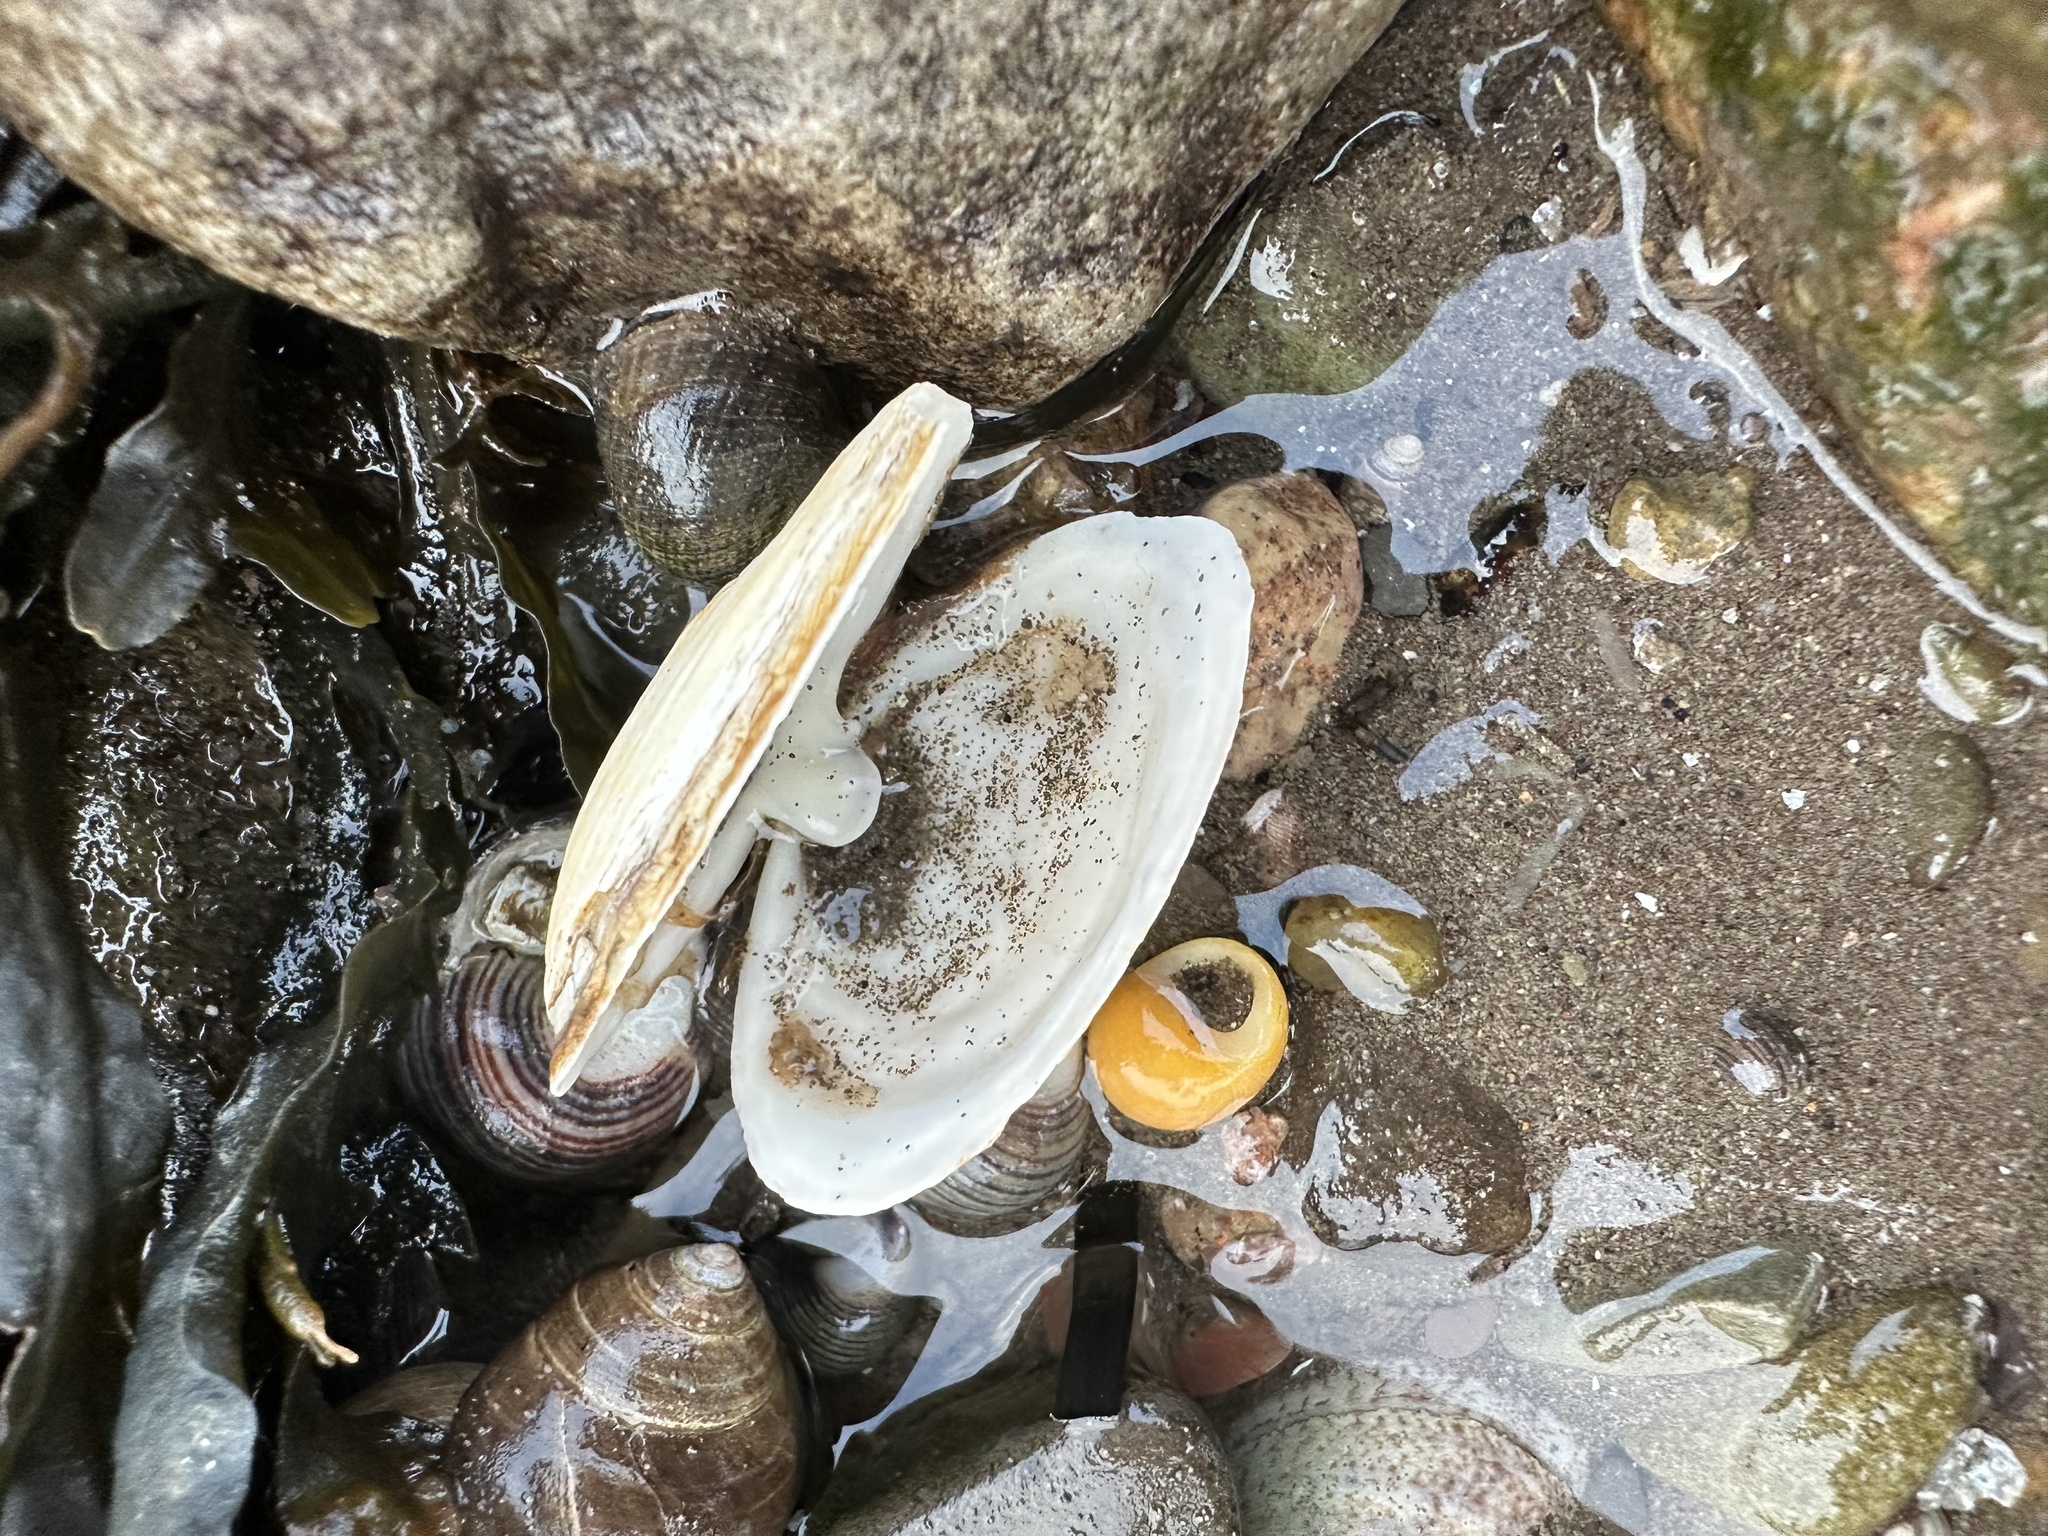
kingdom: Animalia
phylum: Mollusca
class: Bivalvia
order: Myida
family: Myidae
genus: Mya
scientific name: Mya arenaria
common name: Soft-shelled clam
